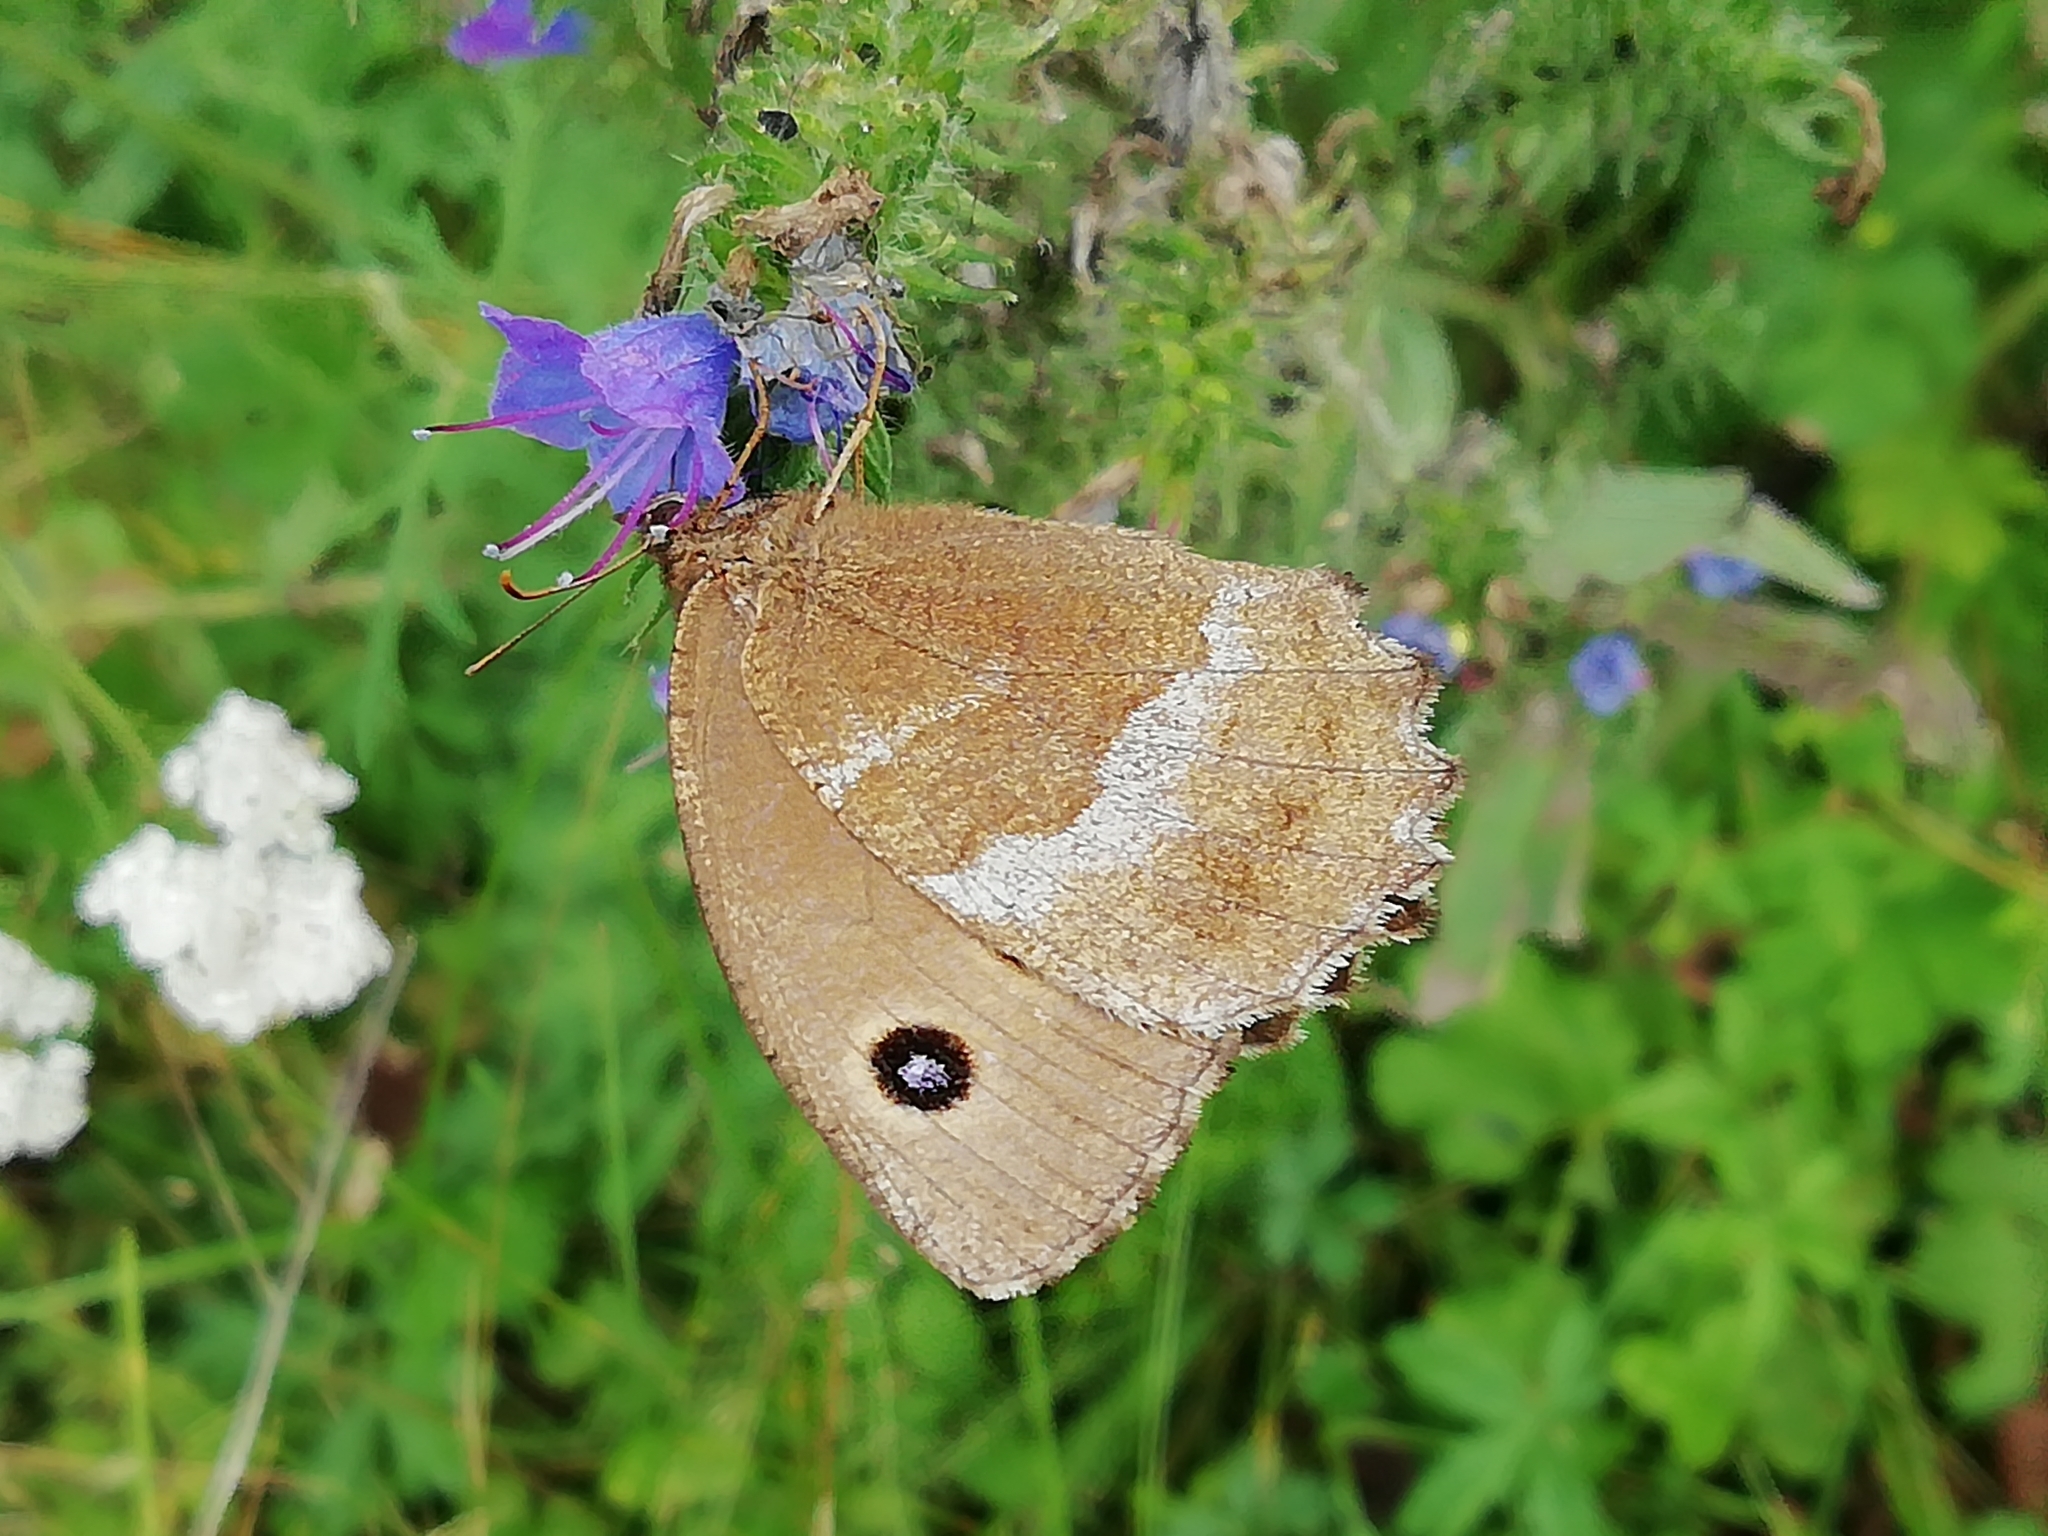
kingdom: Animalia
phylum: Arthropoda
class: Insecta
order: Lepidoptera
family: Nymphalidae
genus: Minois
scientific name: Minois dryas
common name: Dryad
